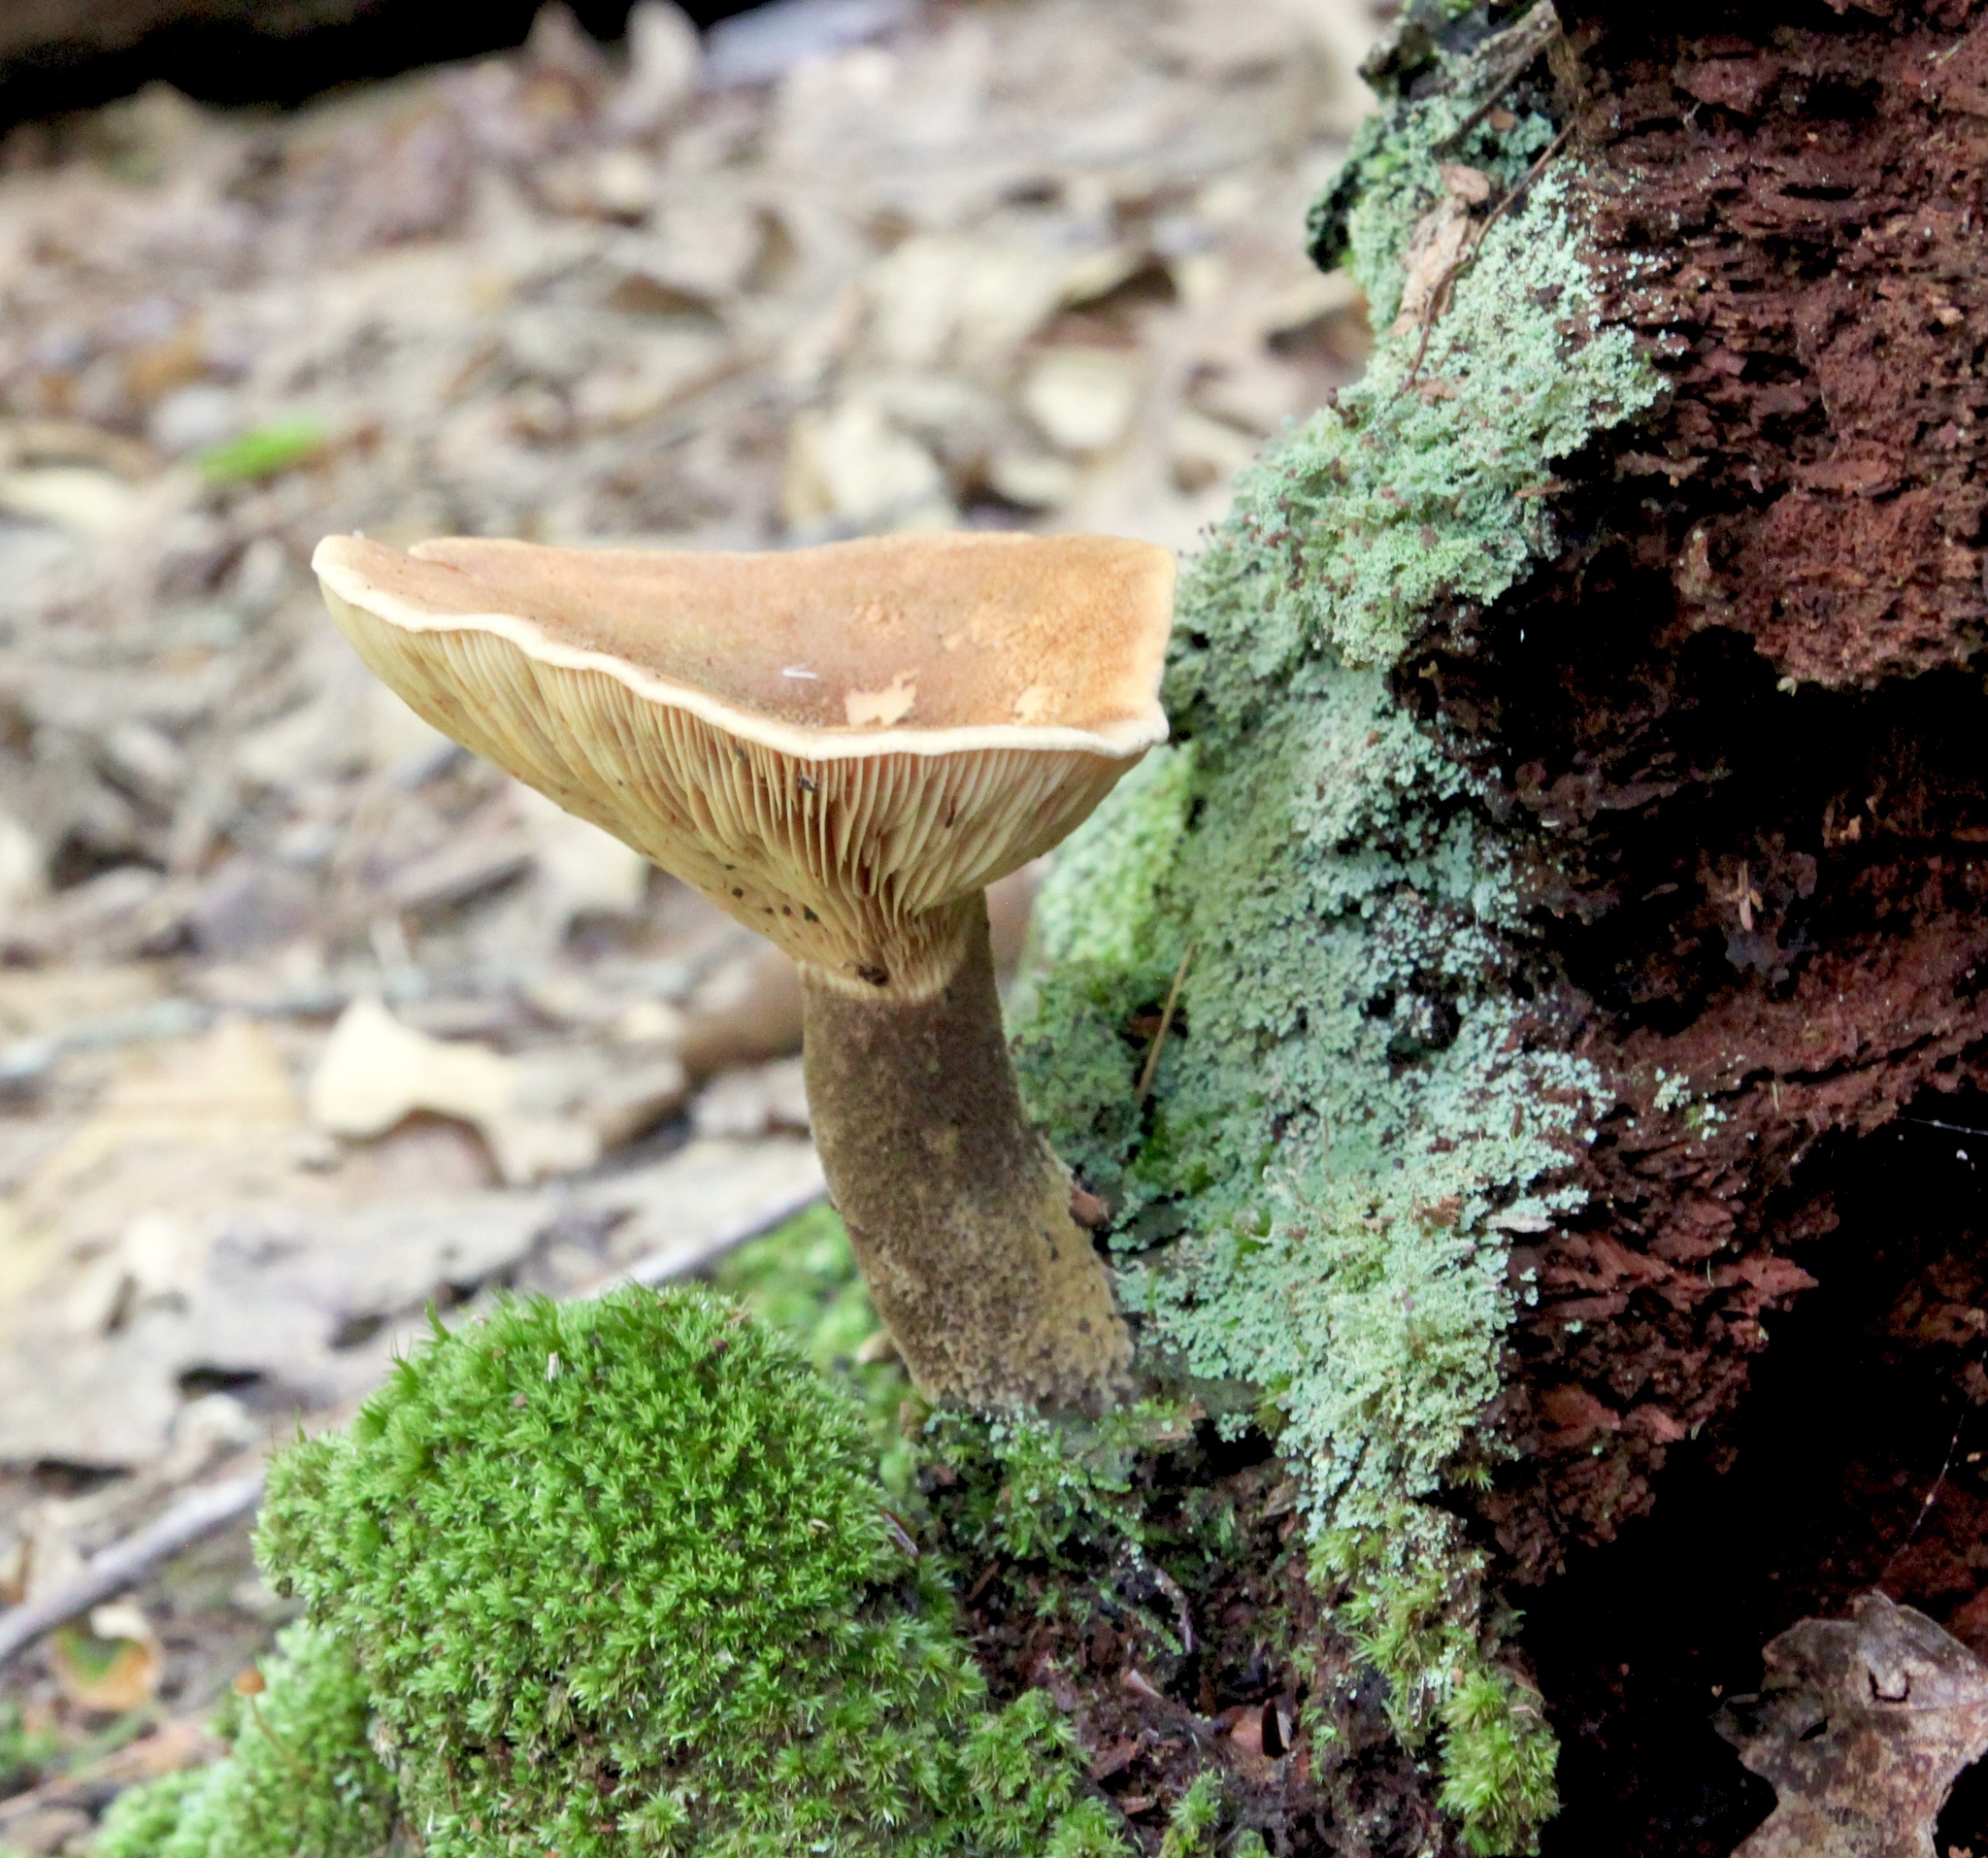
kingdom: Fungi
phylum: Basidiomycota
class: Agaricomycetes
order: Boletales
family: Tapinellaceae
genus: Tapinella
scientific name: Tapinella atrotomentosa
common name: Velvet rollrim
